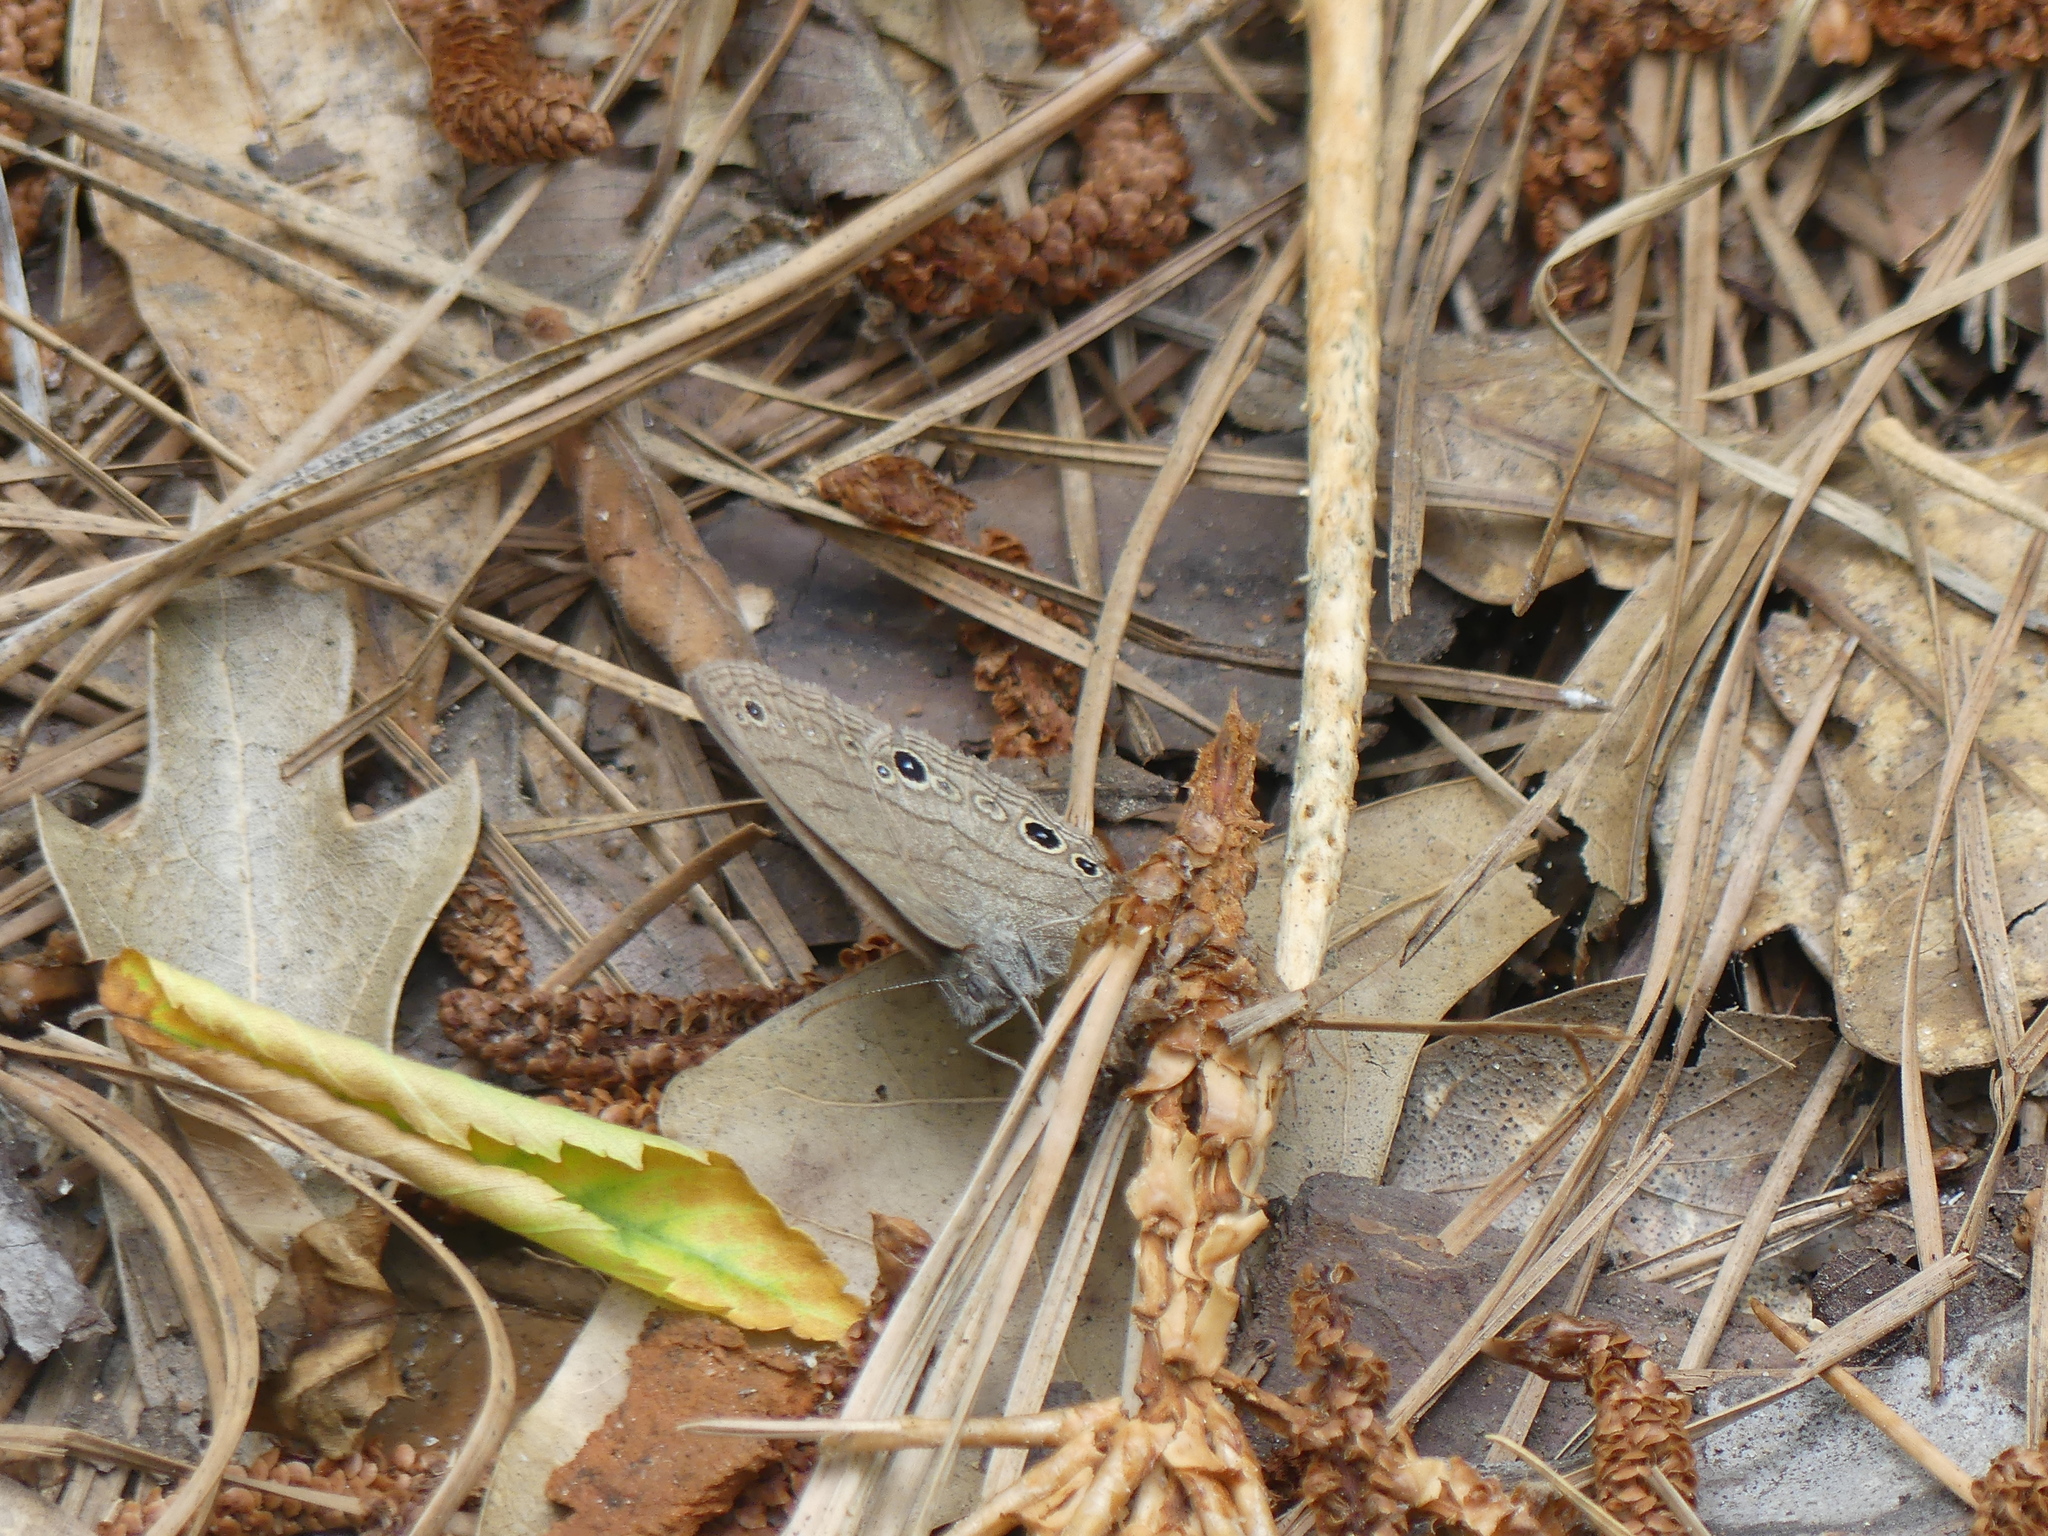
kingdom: Animalia
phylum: Arthropoda
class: Insecta
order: Lepidoptera
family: Nymphalidae
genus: Euptychia
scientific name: Euptychia cymela
